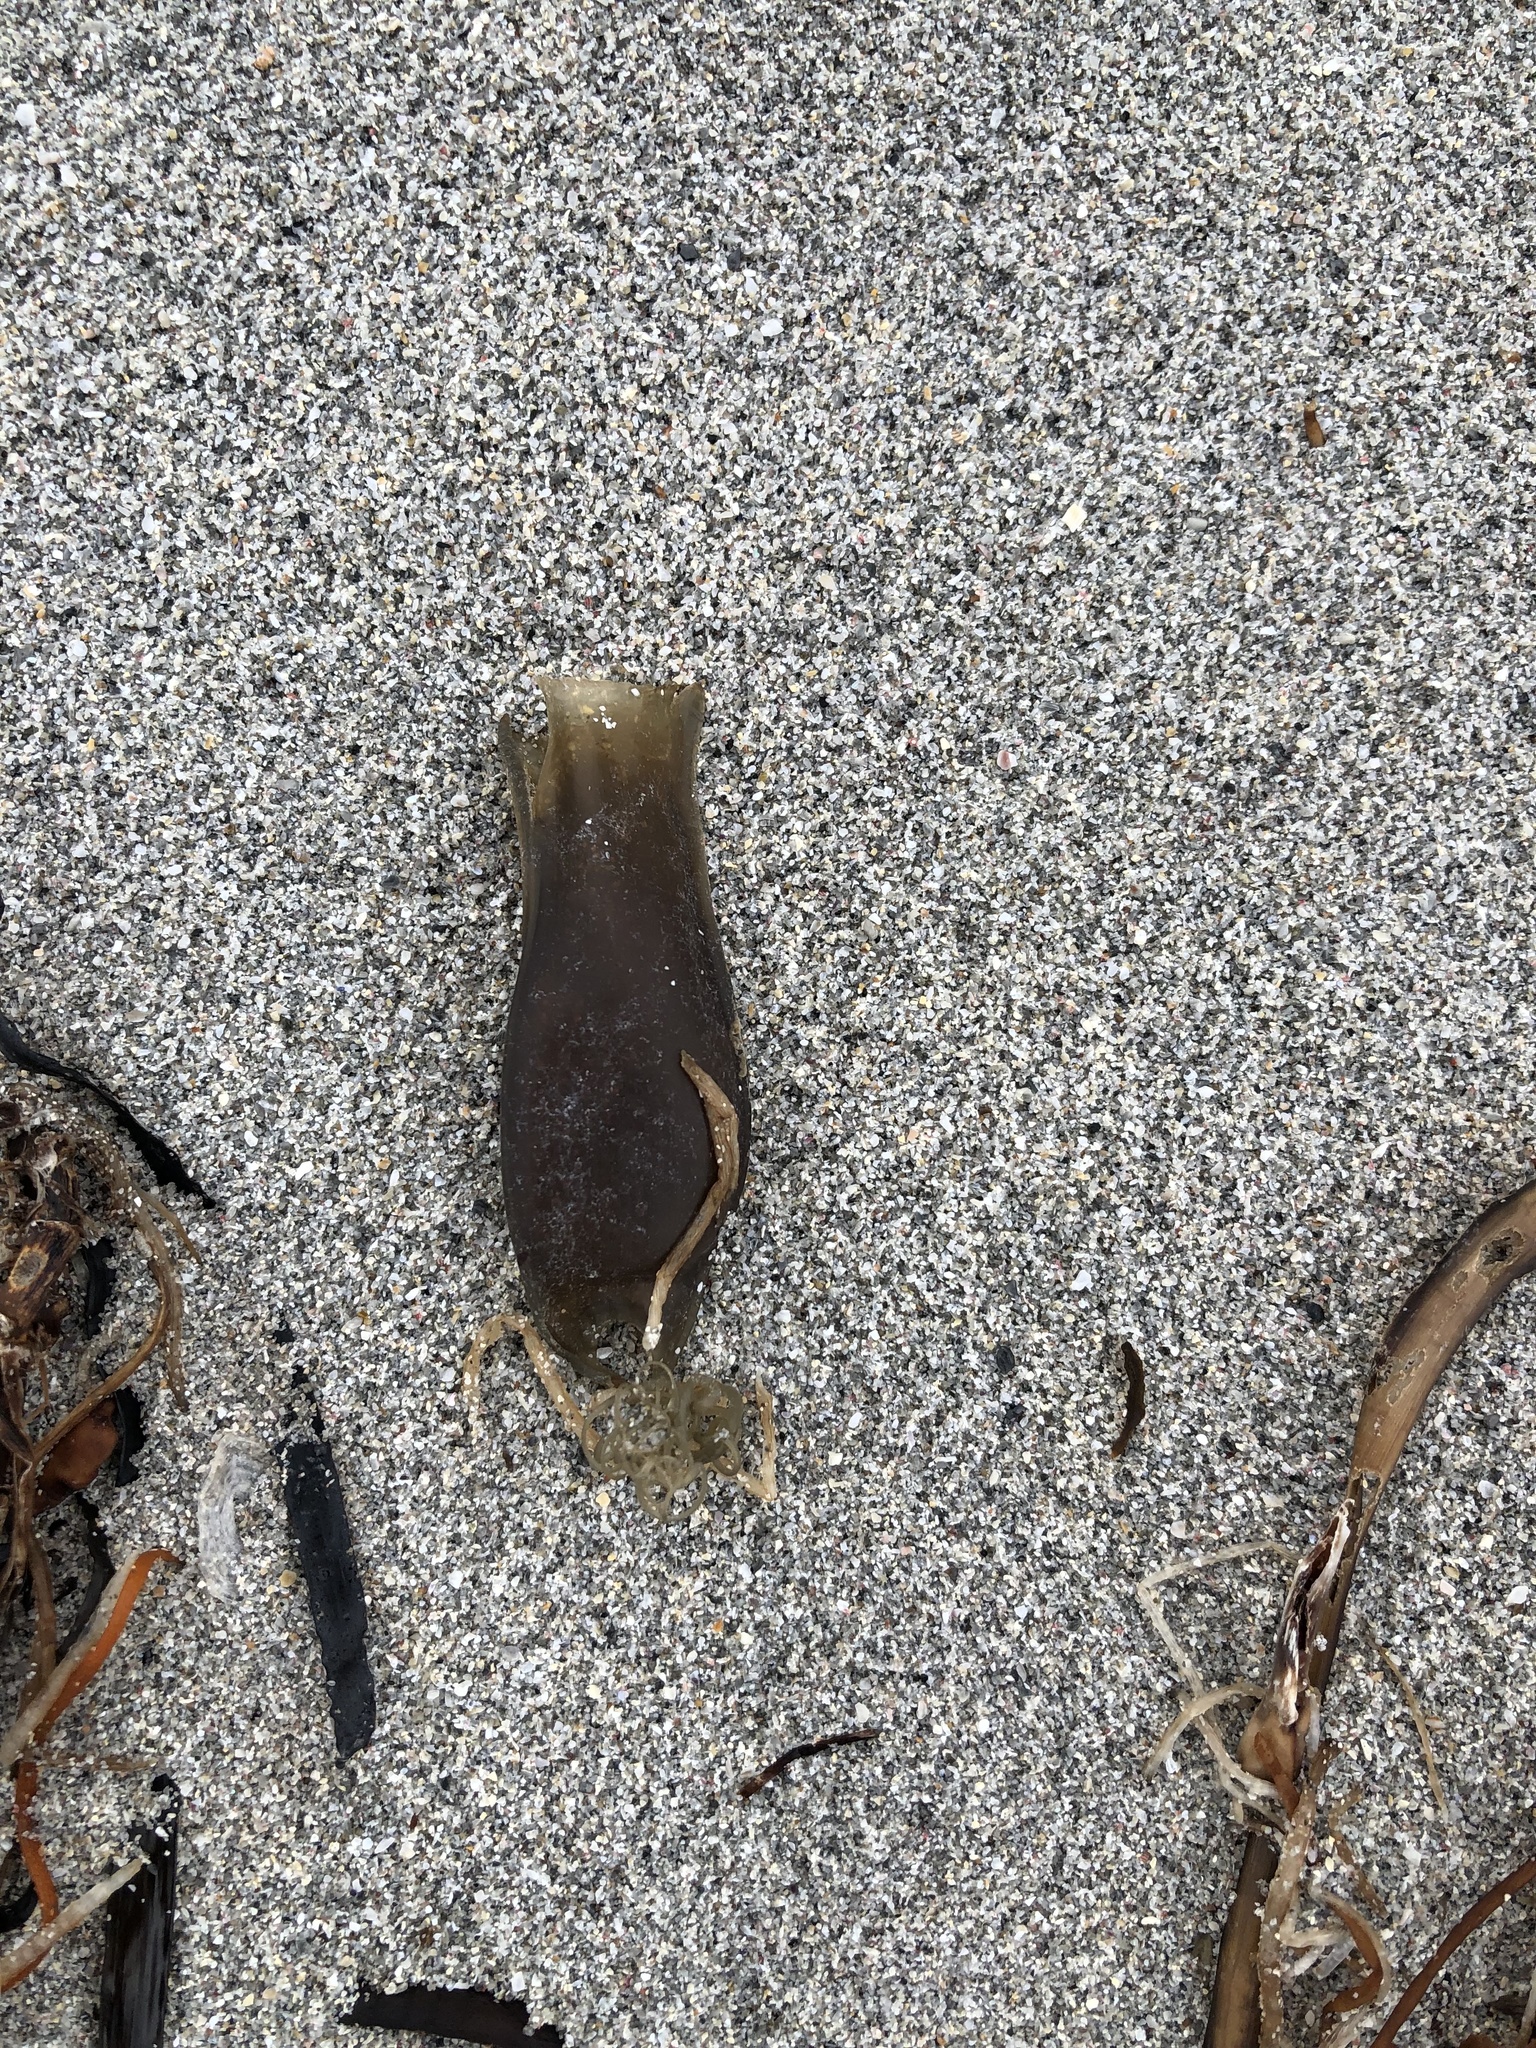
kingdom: Animalia
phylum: Chordata
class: Elasmobranchii
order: Carcharhiniformes
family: Scyliorhinidae
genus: Scyliorhinus
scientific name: Scyliorhinus canicula
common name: Lesser spotted dogfish
